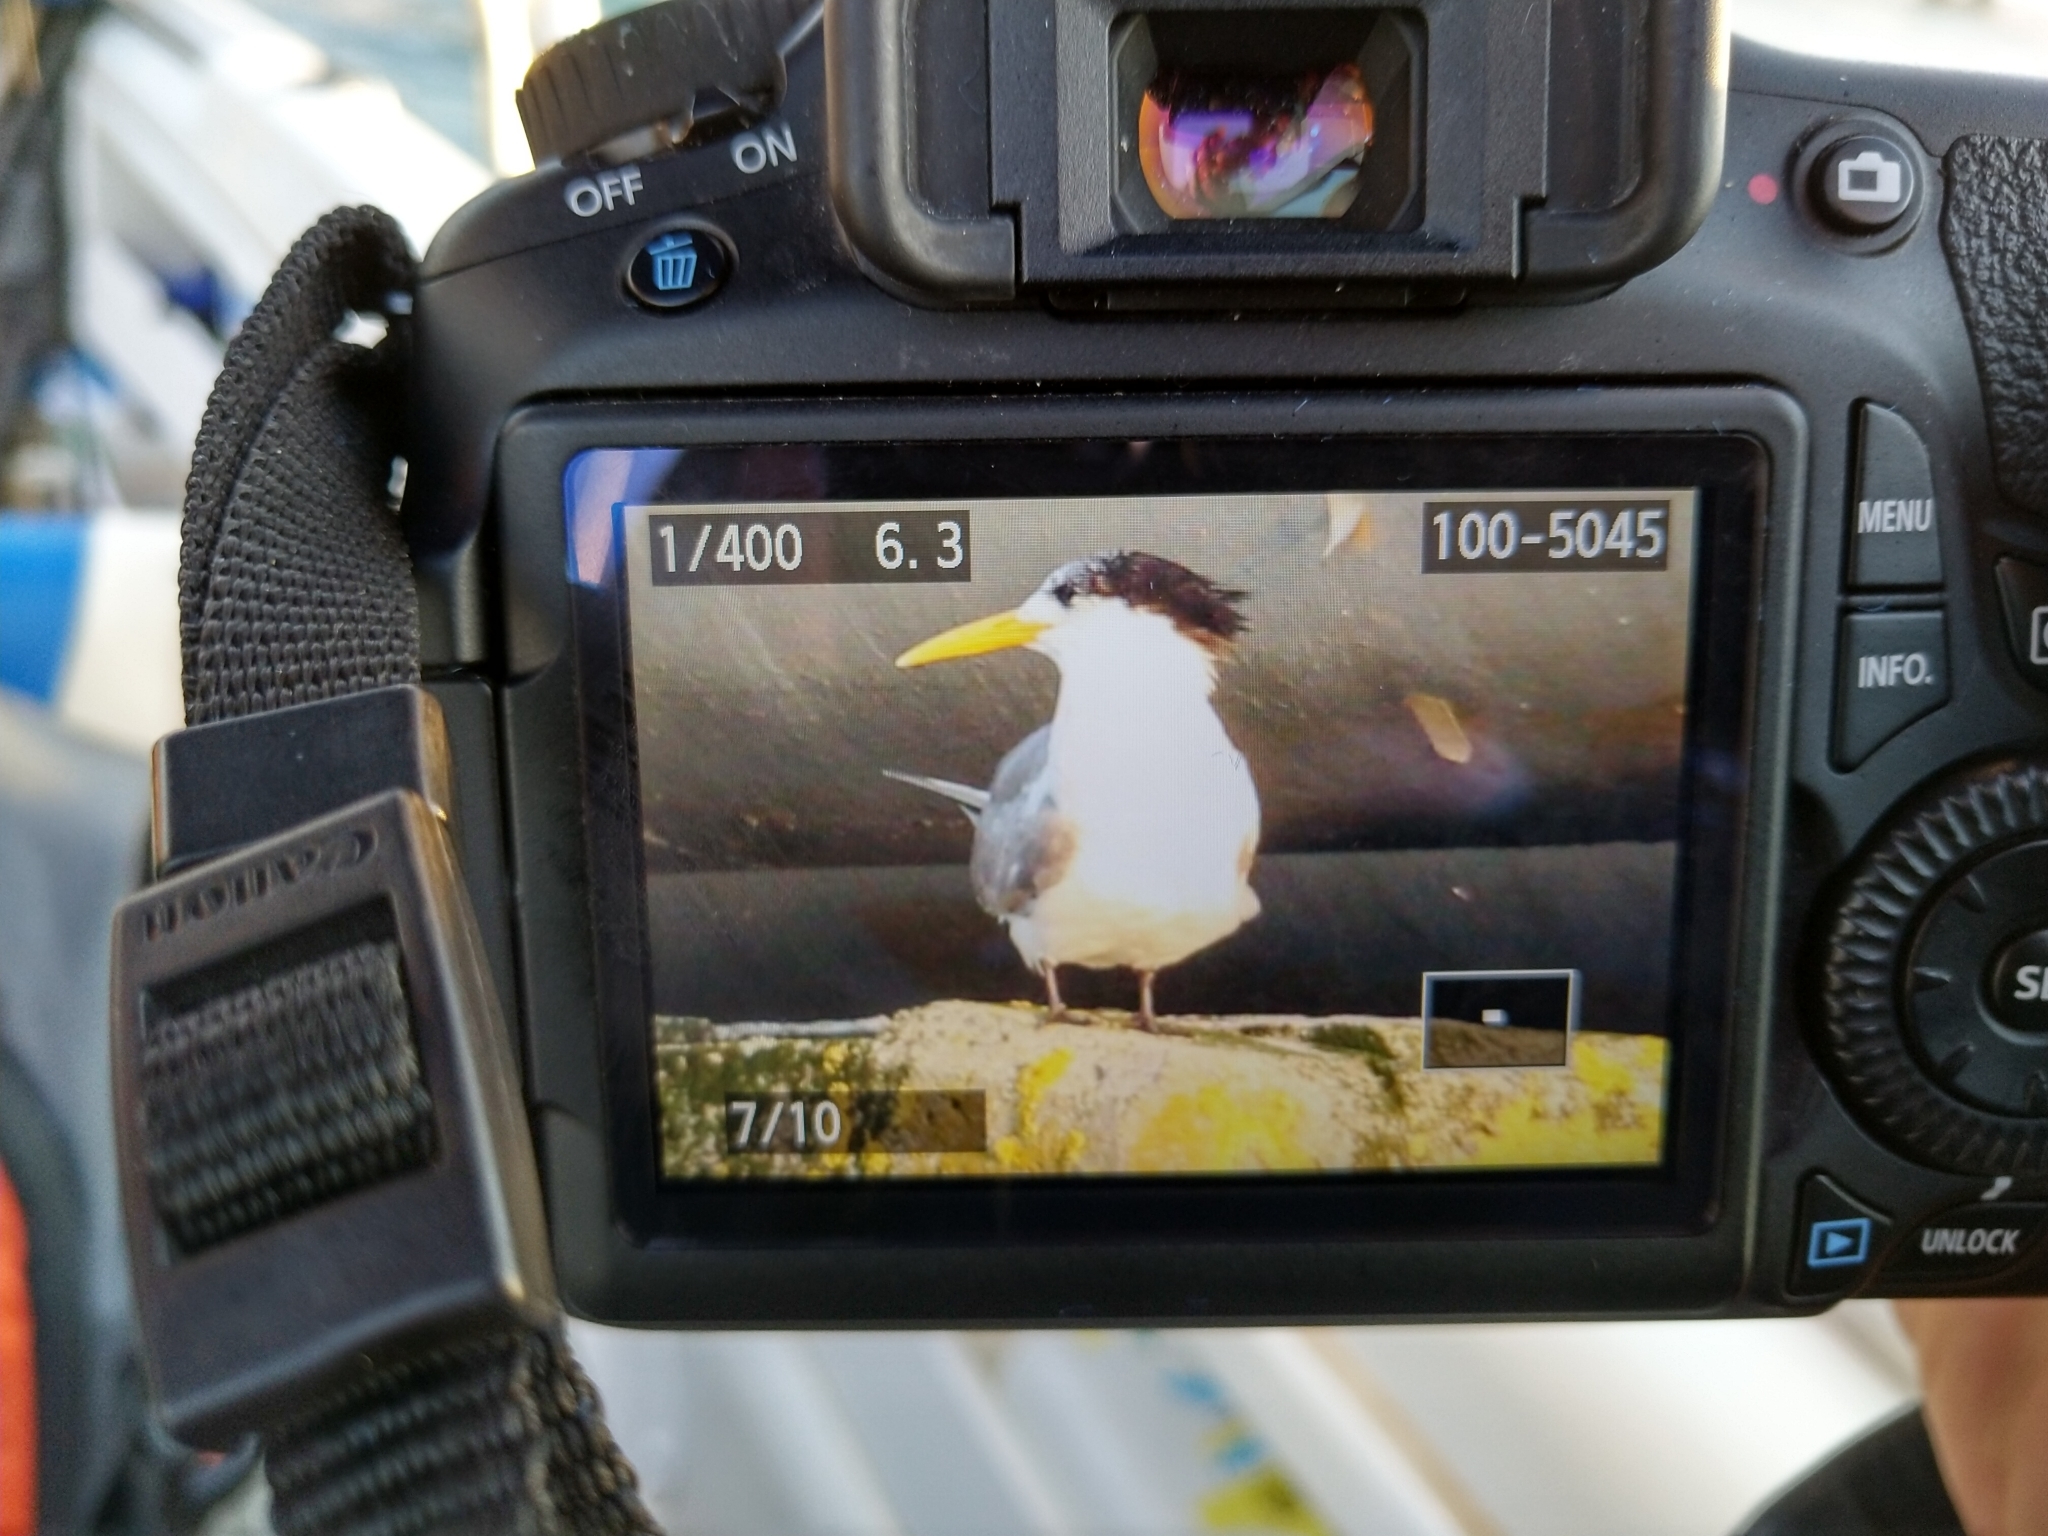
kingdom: Animalia
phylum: Chordata
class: Aves
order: Charadriiformes
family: Laridae
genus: Thalasseus
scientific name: Thalasseus bergii
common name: Greater crested tern
